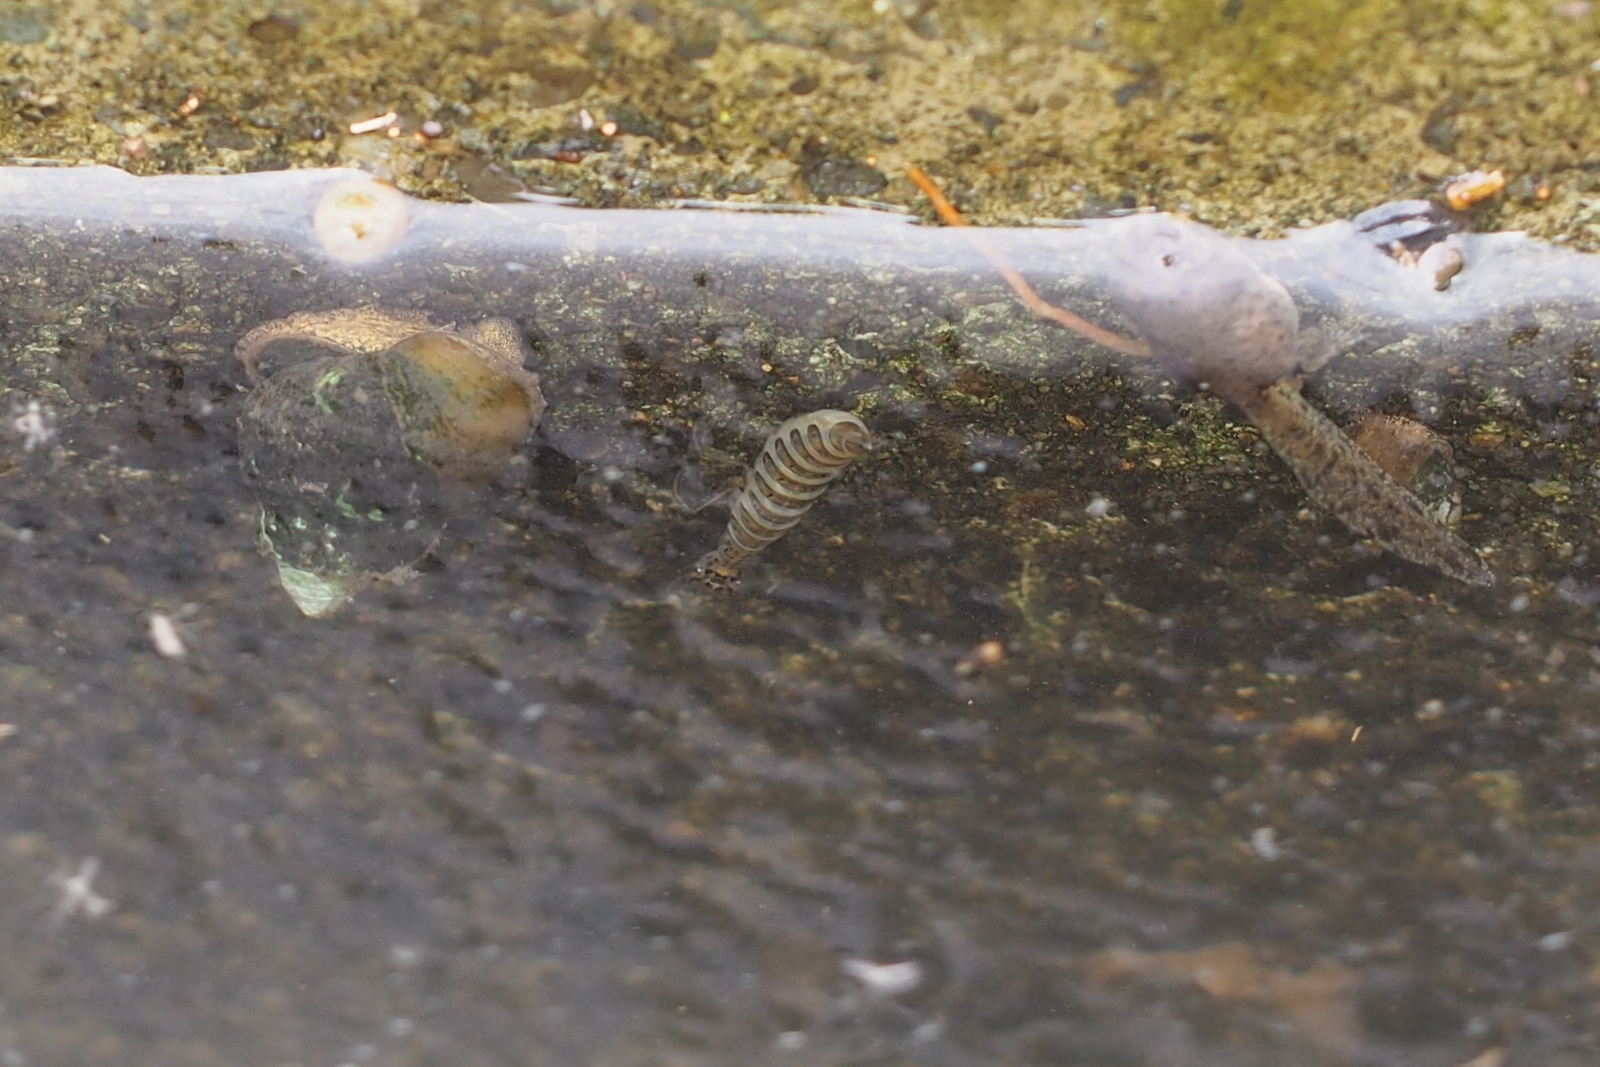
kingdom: Animalia
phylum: Arthropoda
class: Insecta
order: Coleoptera
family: Dytiscidae
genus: Eretes
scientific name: Eretes griseus
